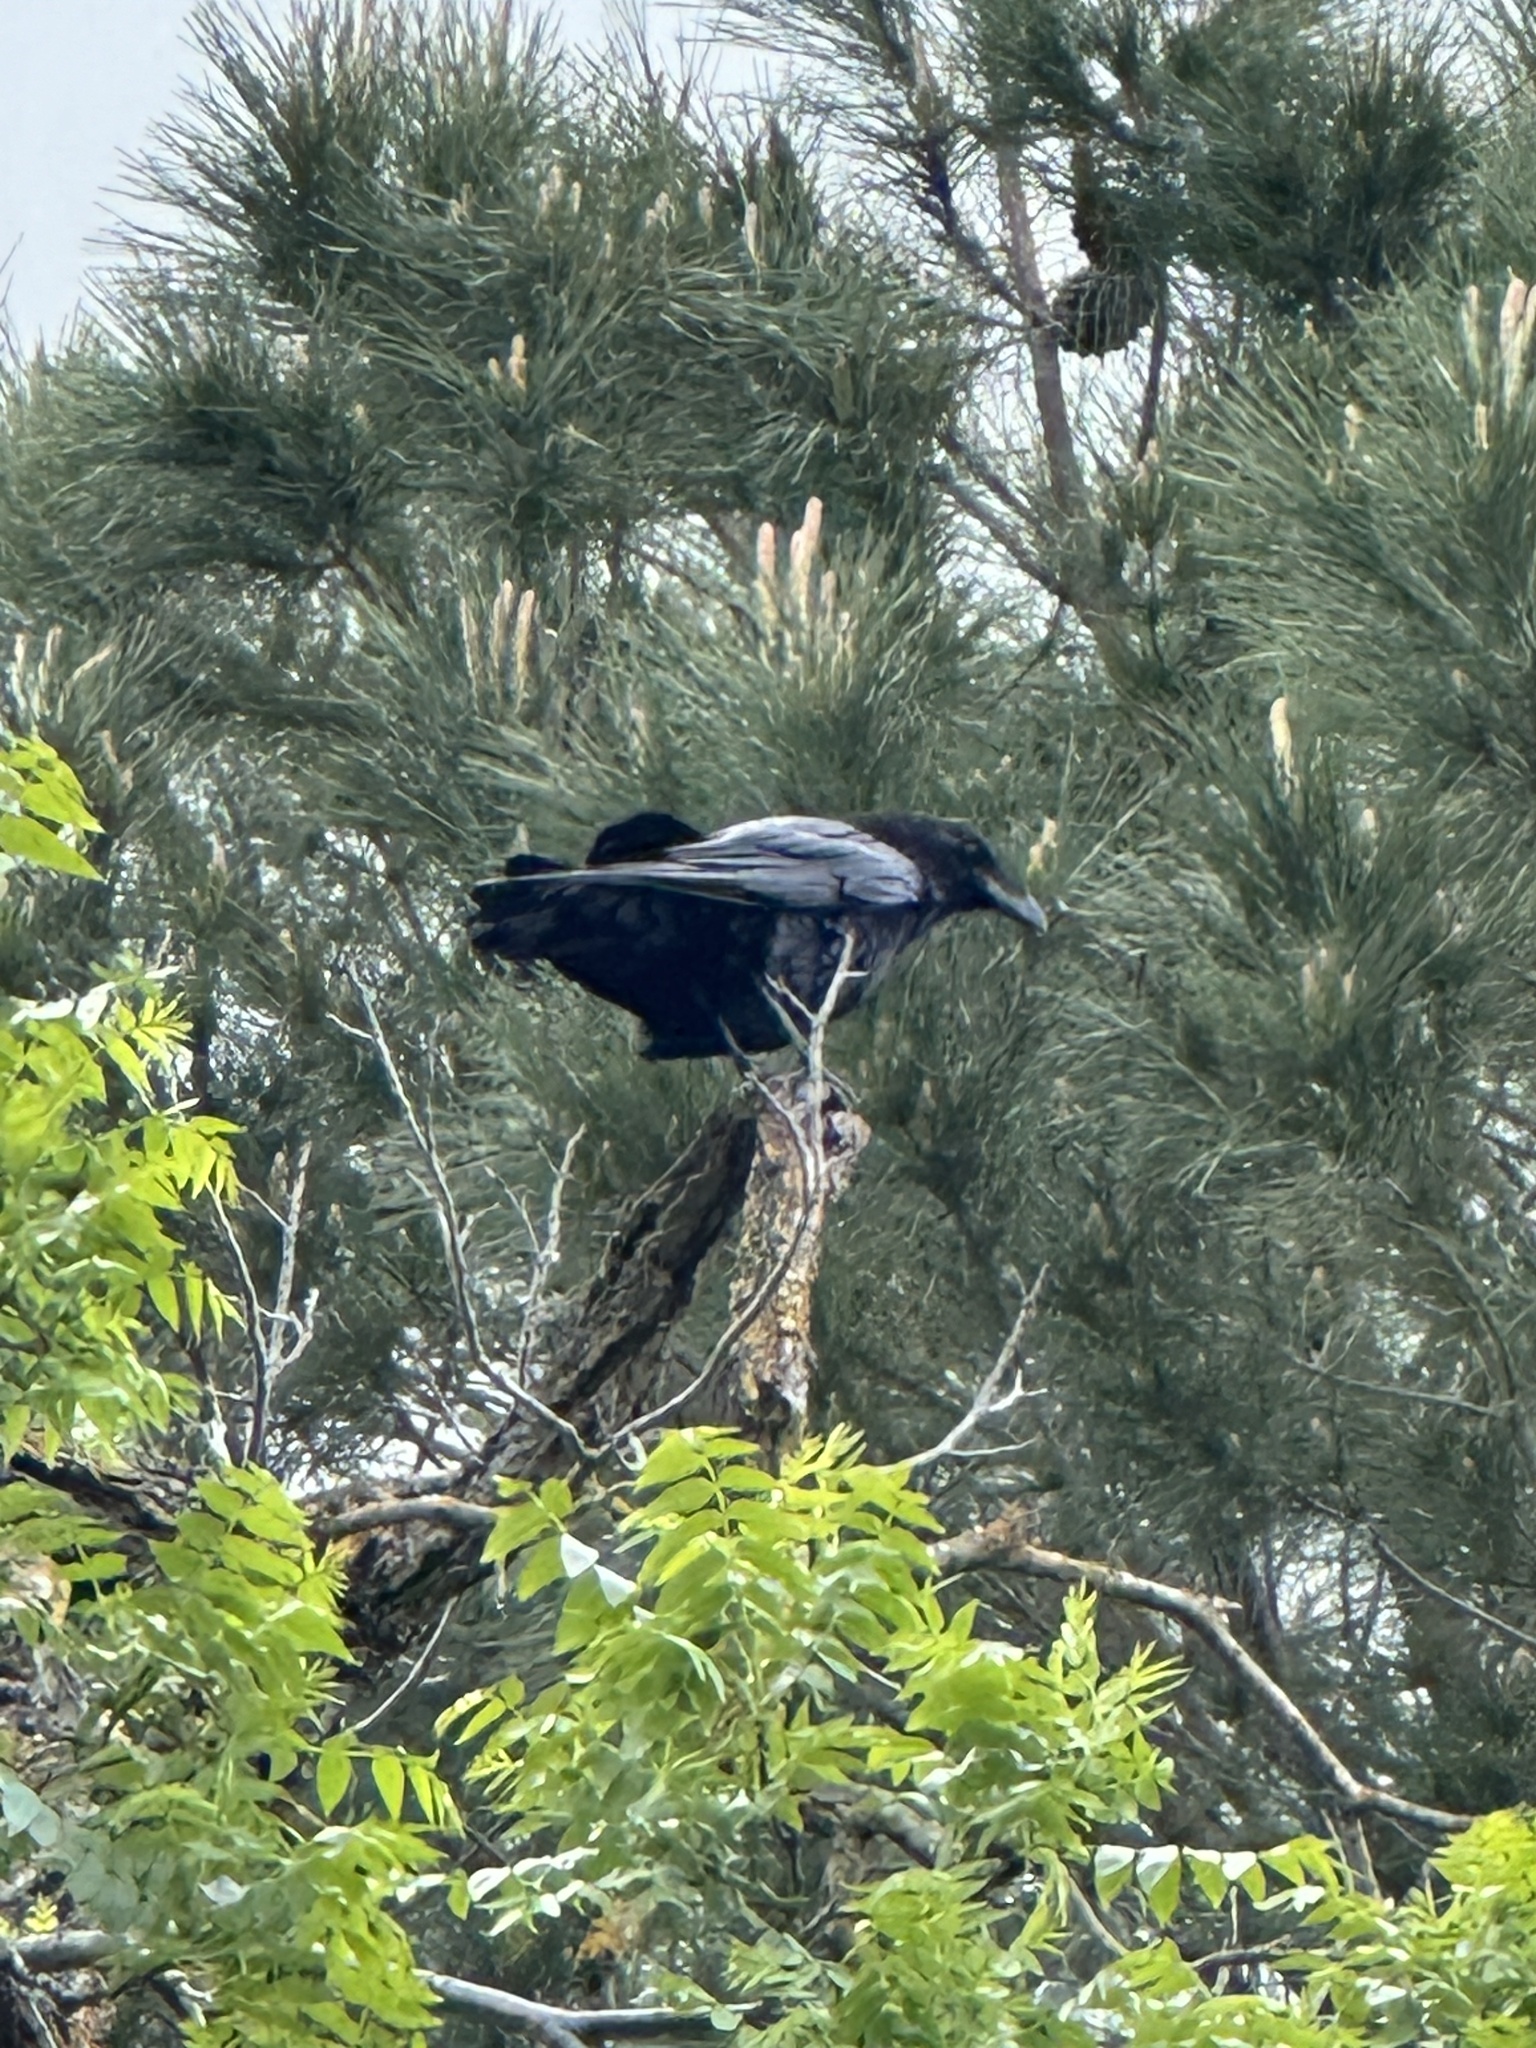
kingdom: Animalia
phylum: Chordata
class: Aves
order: Passeriformes
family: Corvidae
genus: Corvus
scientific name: Corvus corax
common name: Common raven
